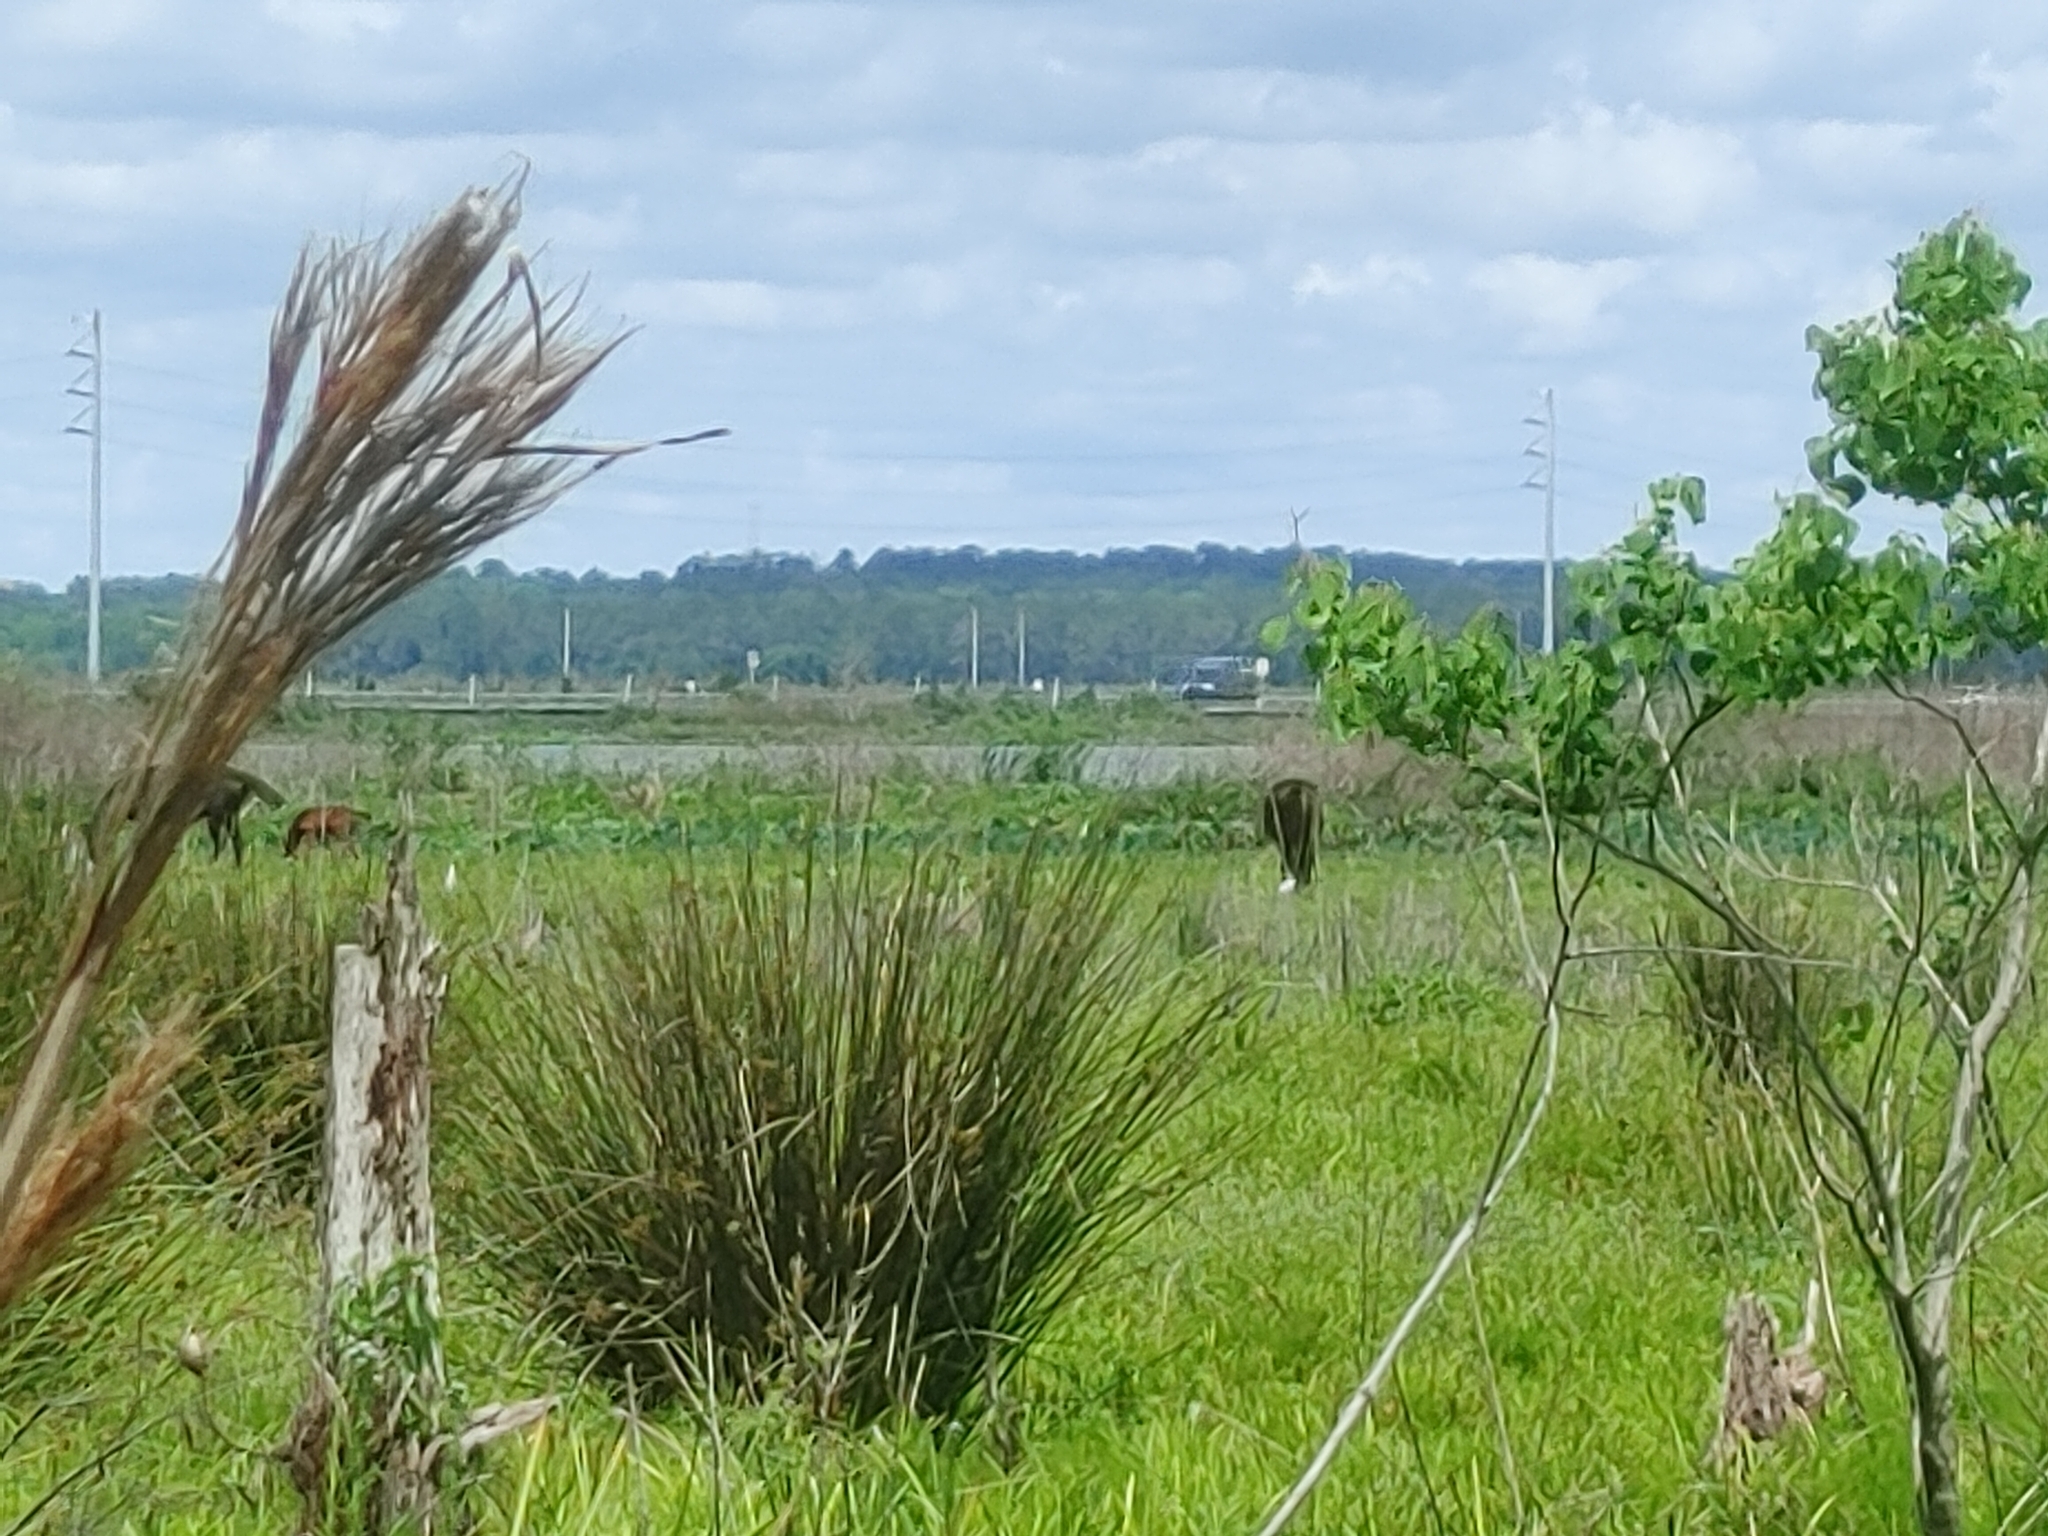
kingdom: Animalia
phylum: Chordata
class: Mammalia
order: Perissodactyla
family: Equidae
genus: Equus
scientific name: Equus caballus
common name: Horse
